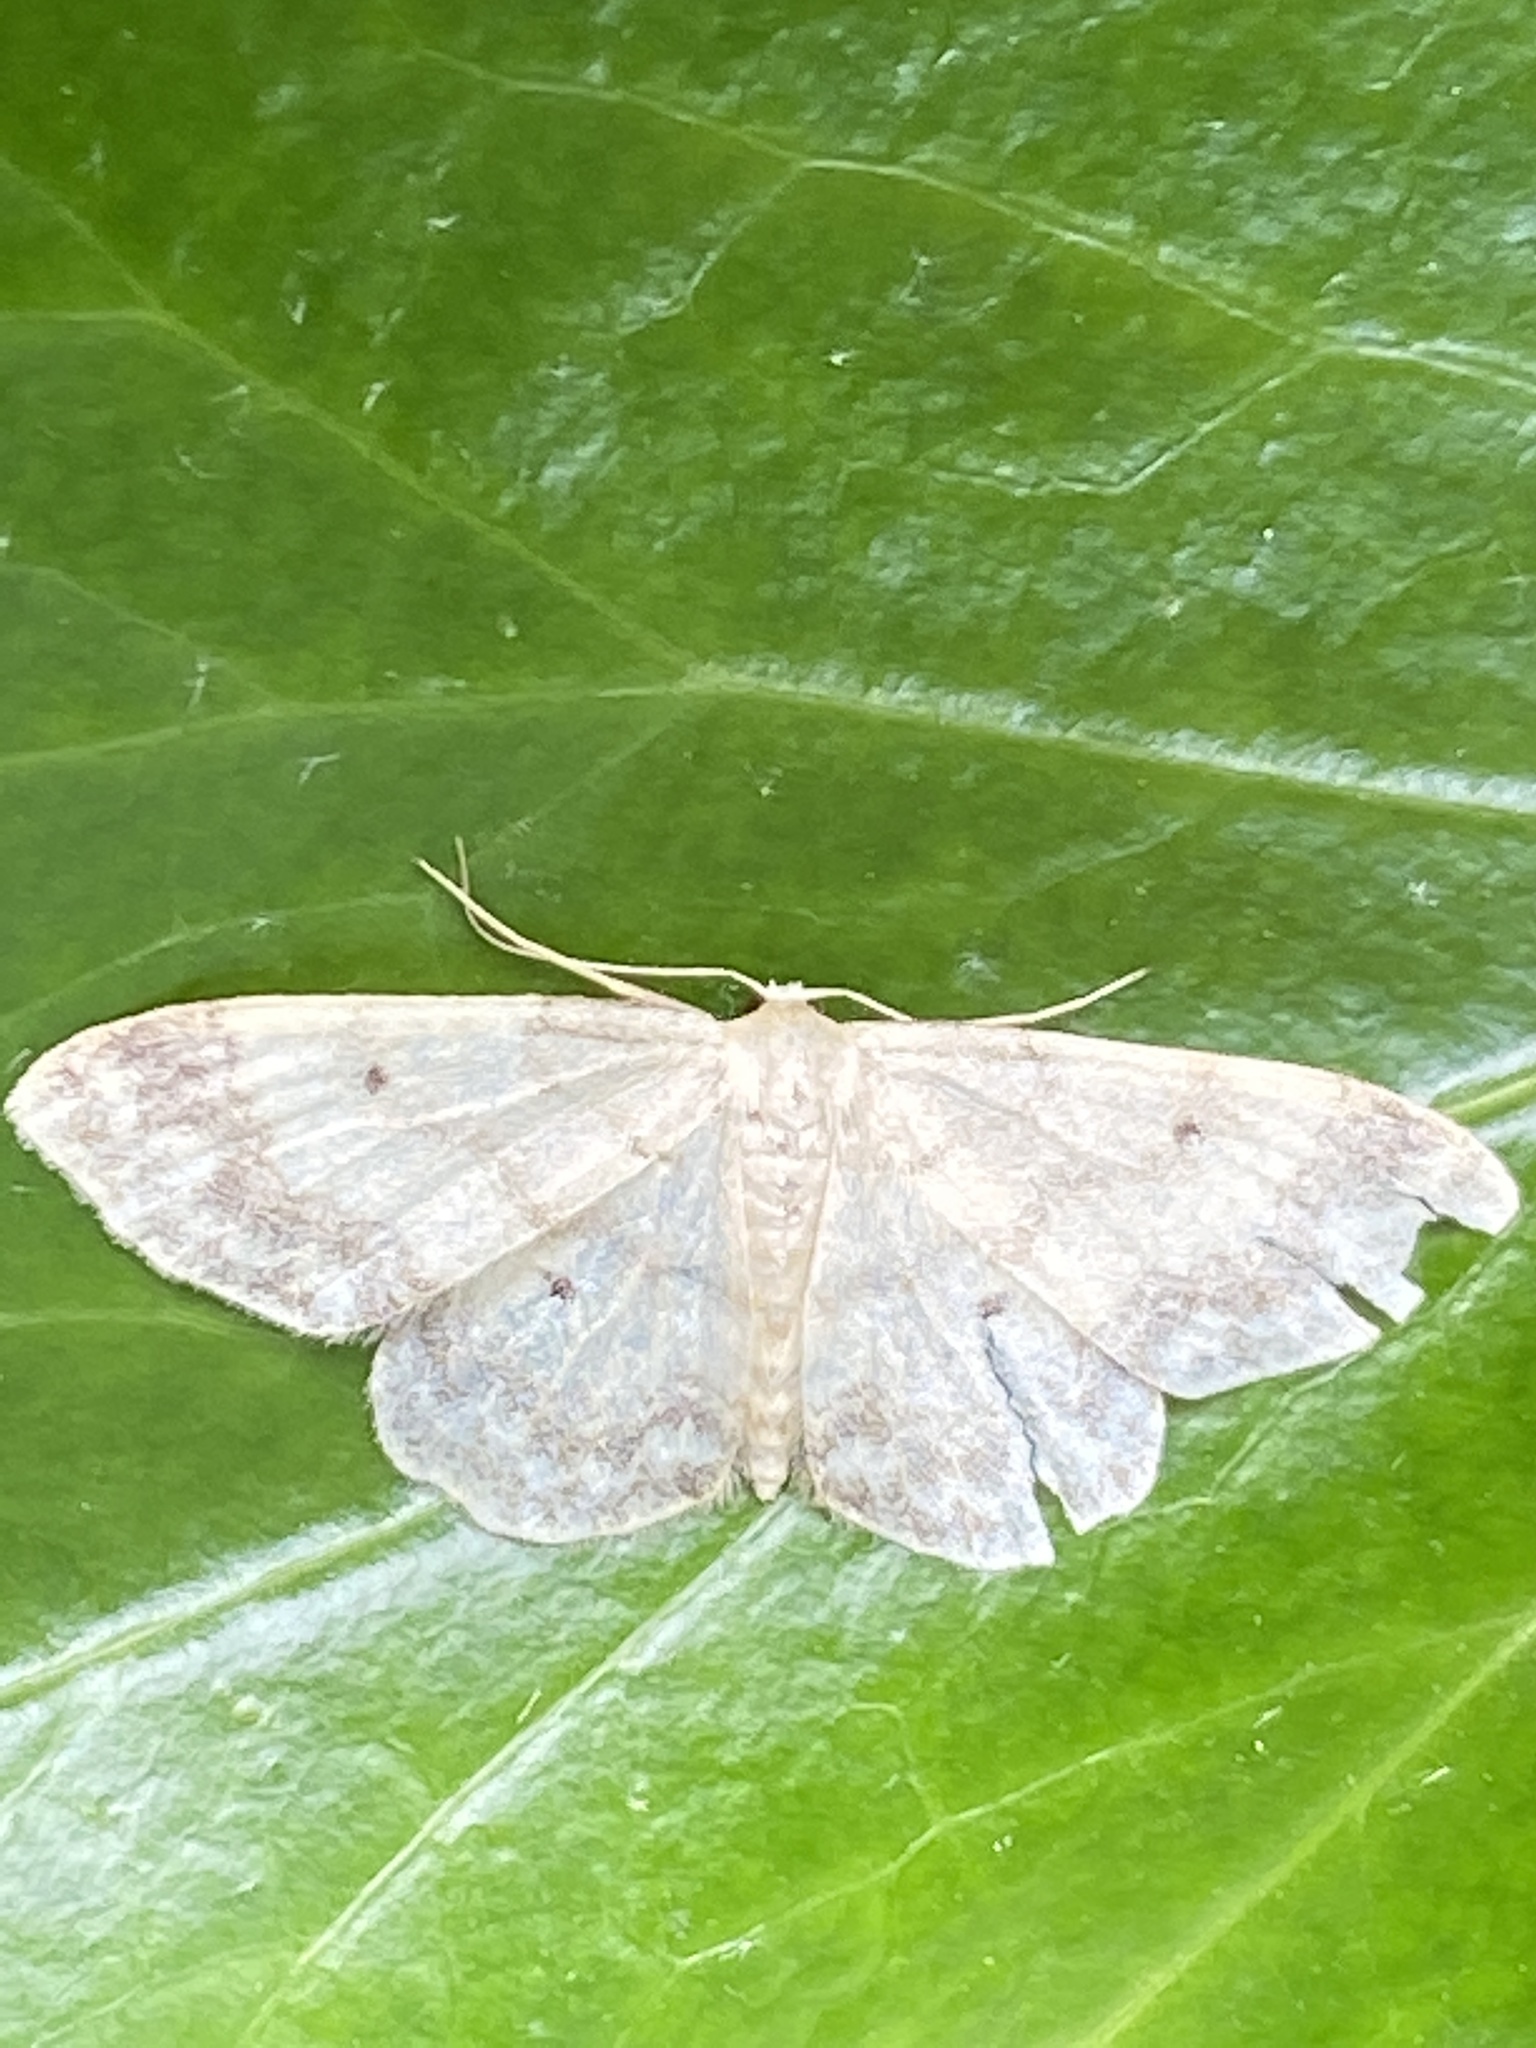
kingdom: Animalia
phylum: Arthropoda
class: Insecta
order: Lepidoptera
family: Geometridae
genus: Idaea
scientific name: Idaea biselata
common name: Small fan-footed wave
